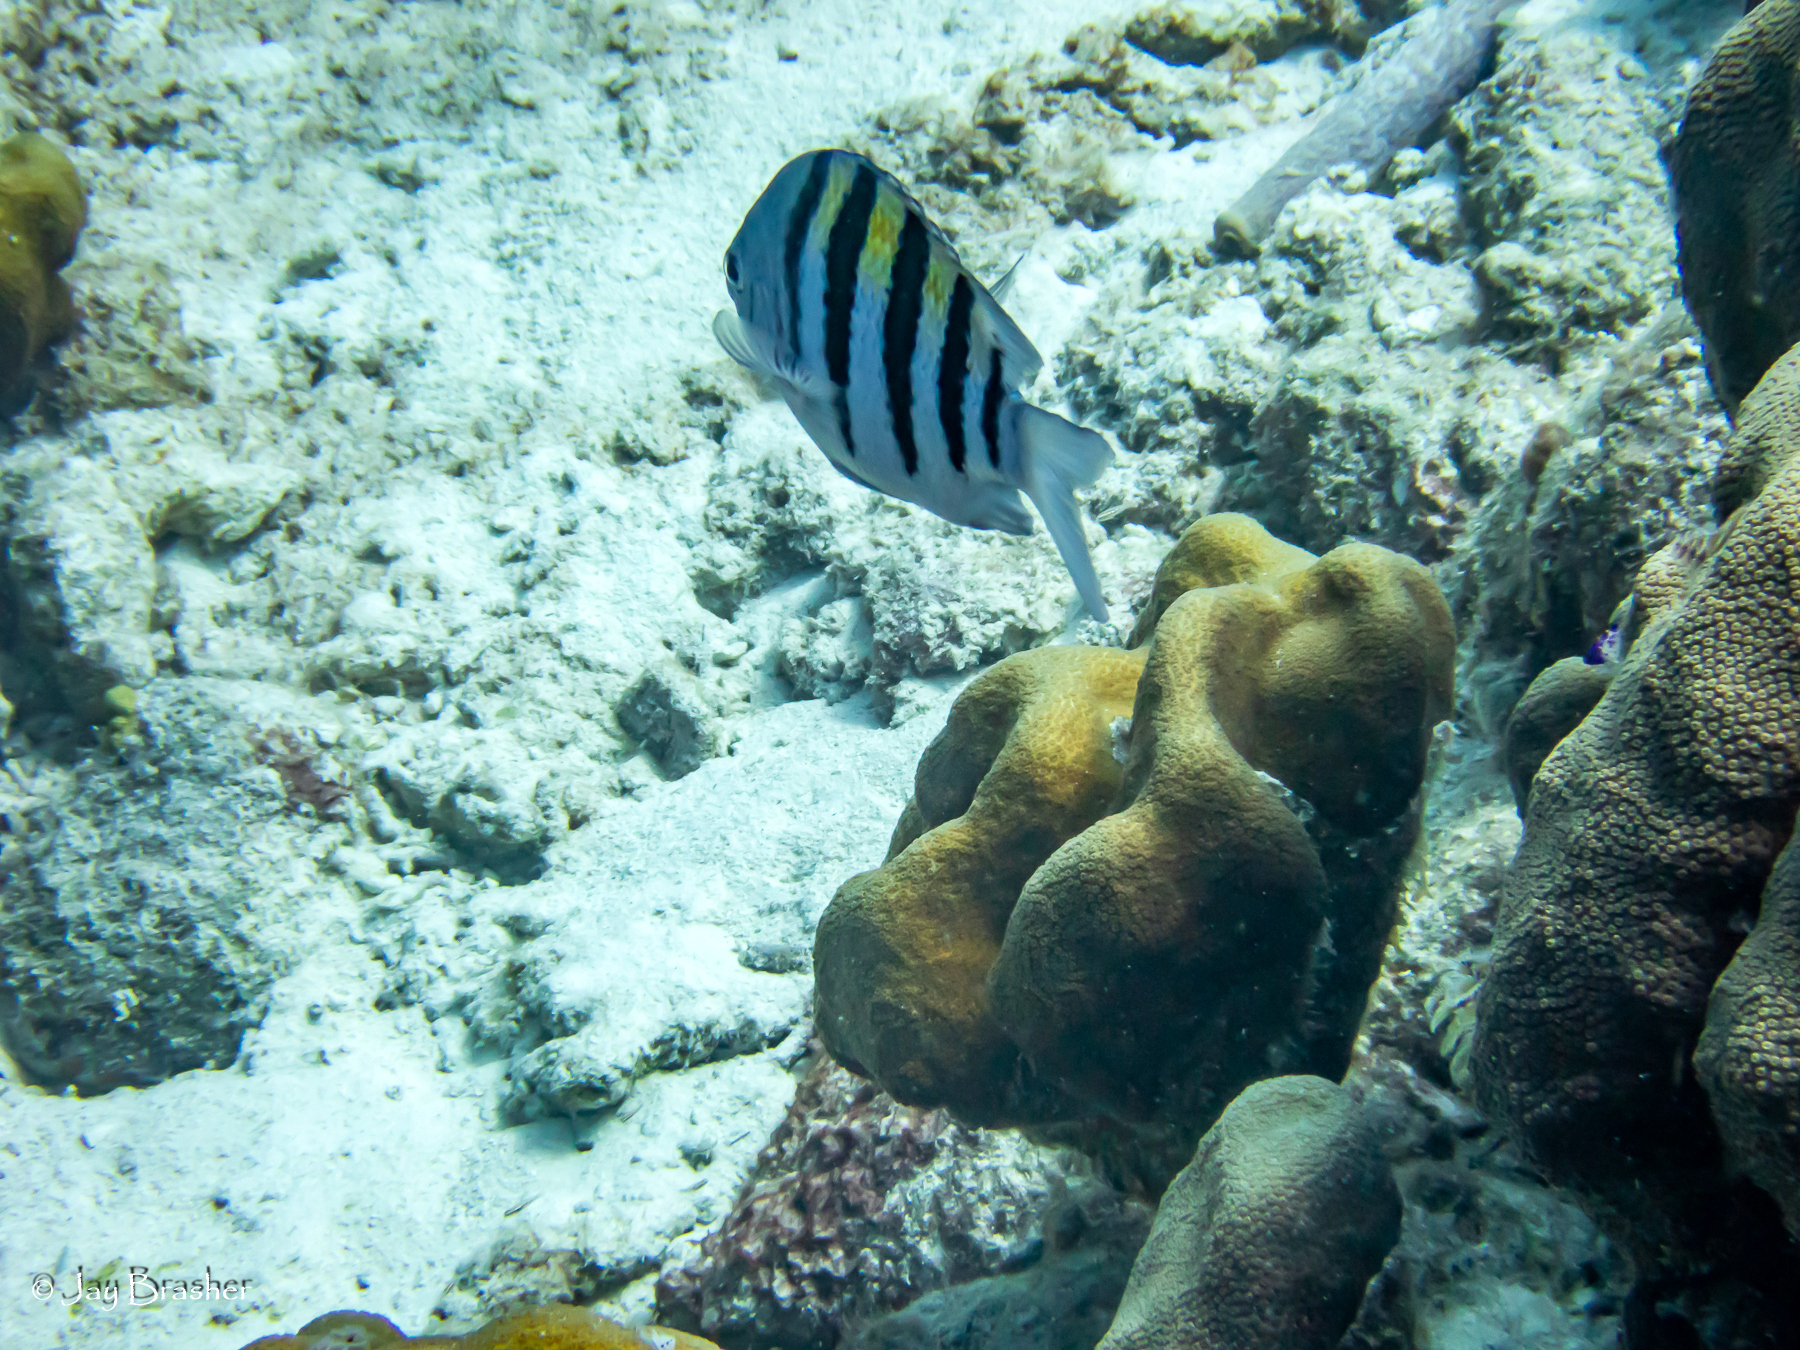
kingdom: Animalia
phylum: Chordata
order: Perciformes
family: Pomacentridae
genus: Abudefduf
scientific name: Abudefduf saxatilis
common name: Sergeant major
